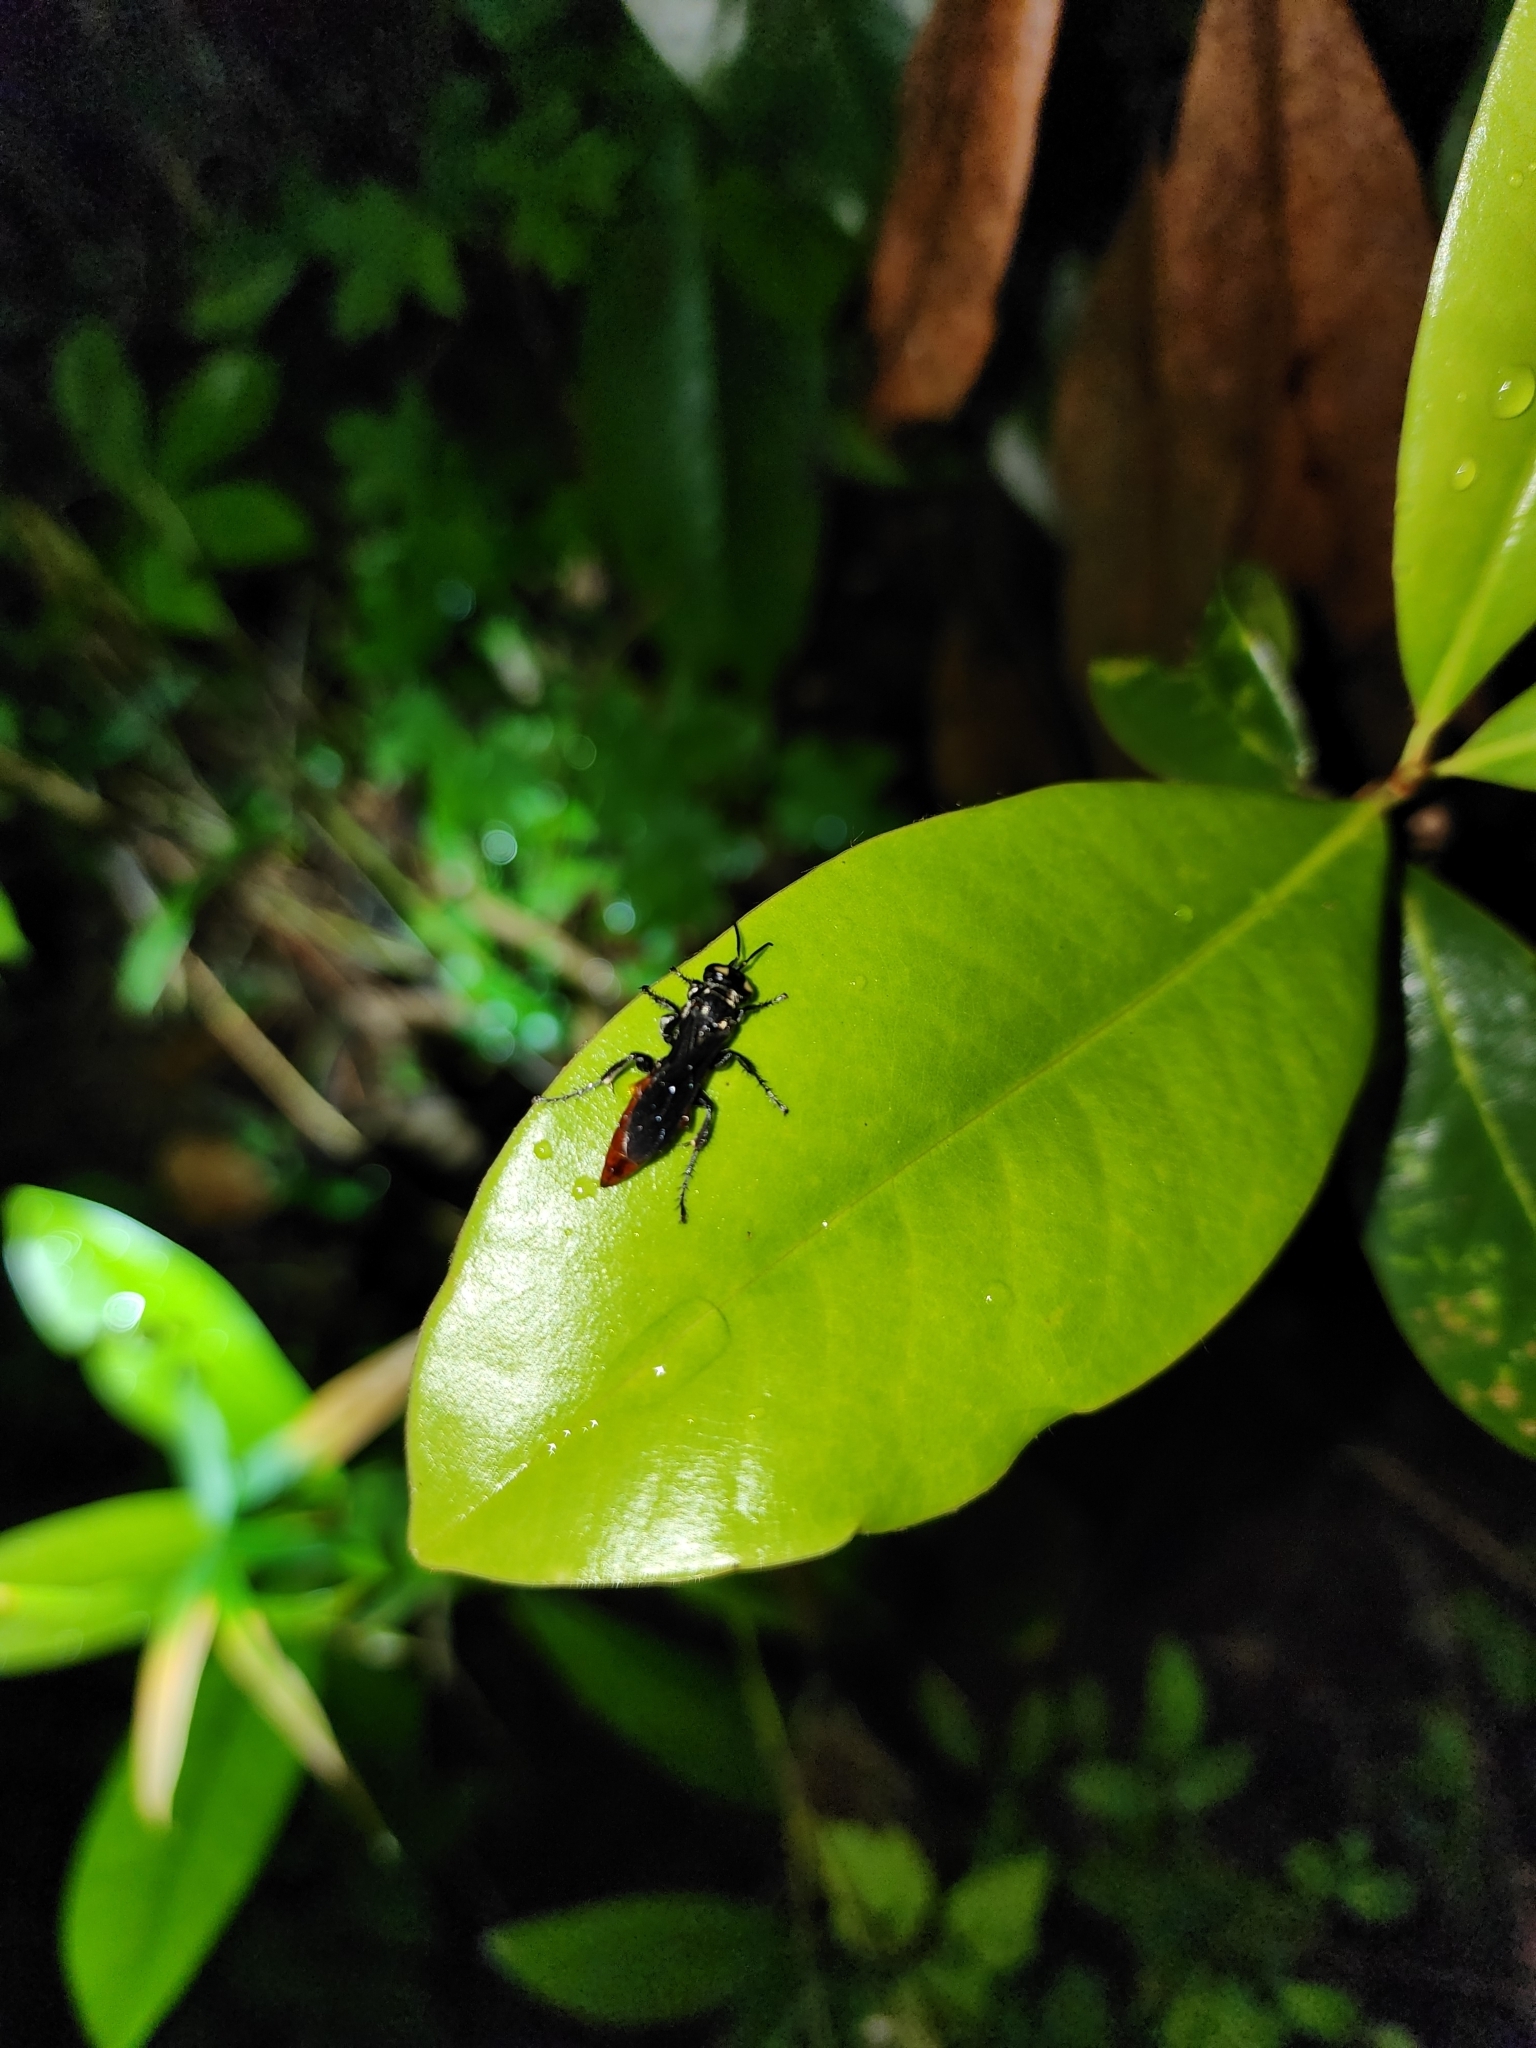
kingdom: Animalia
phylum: Arthropoda
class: Insecta
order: Hymenoptera
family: Crabronidae
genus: Larra
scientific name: Larra bicolor
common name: Wasp
